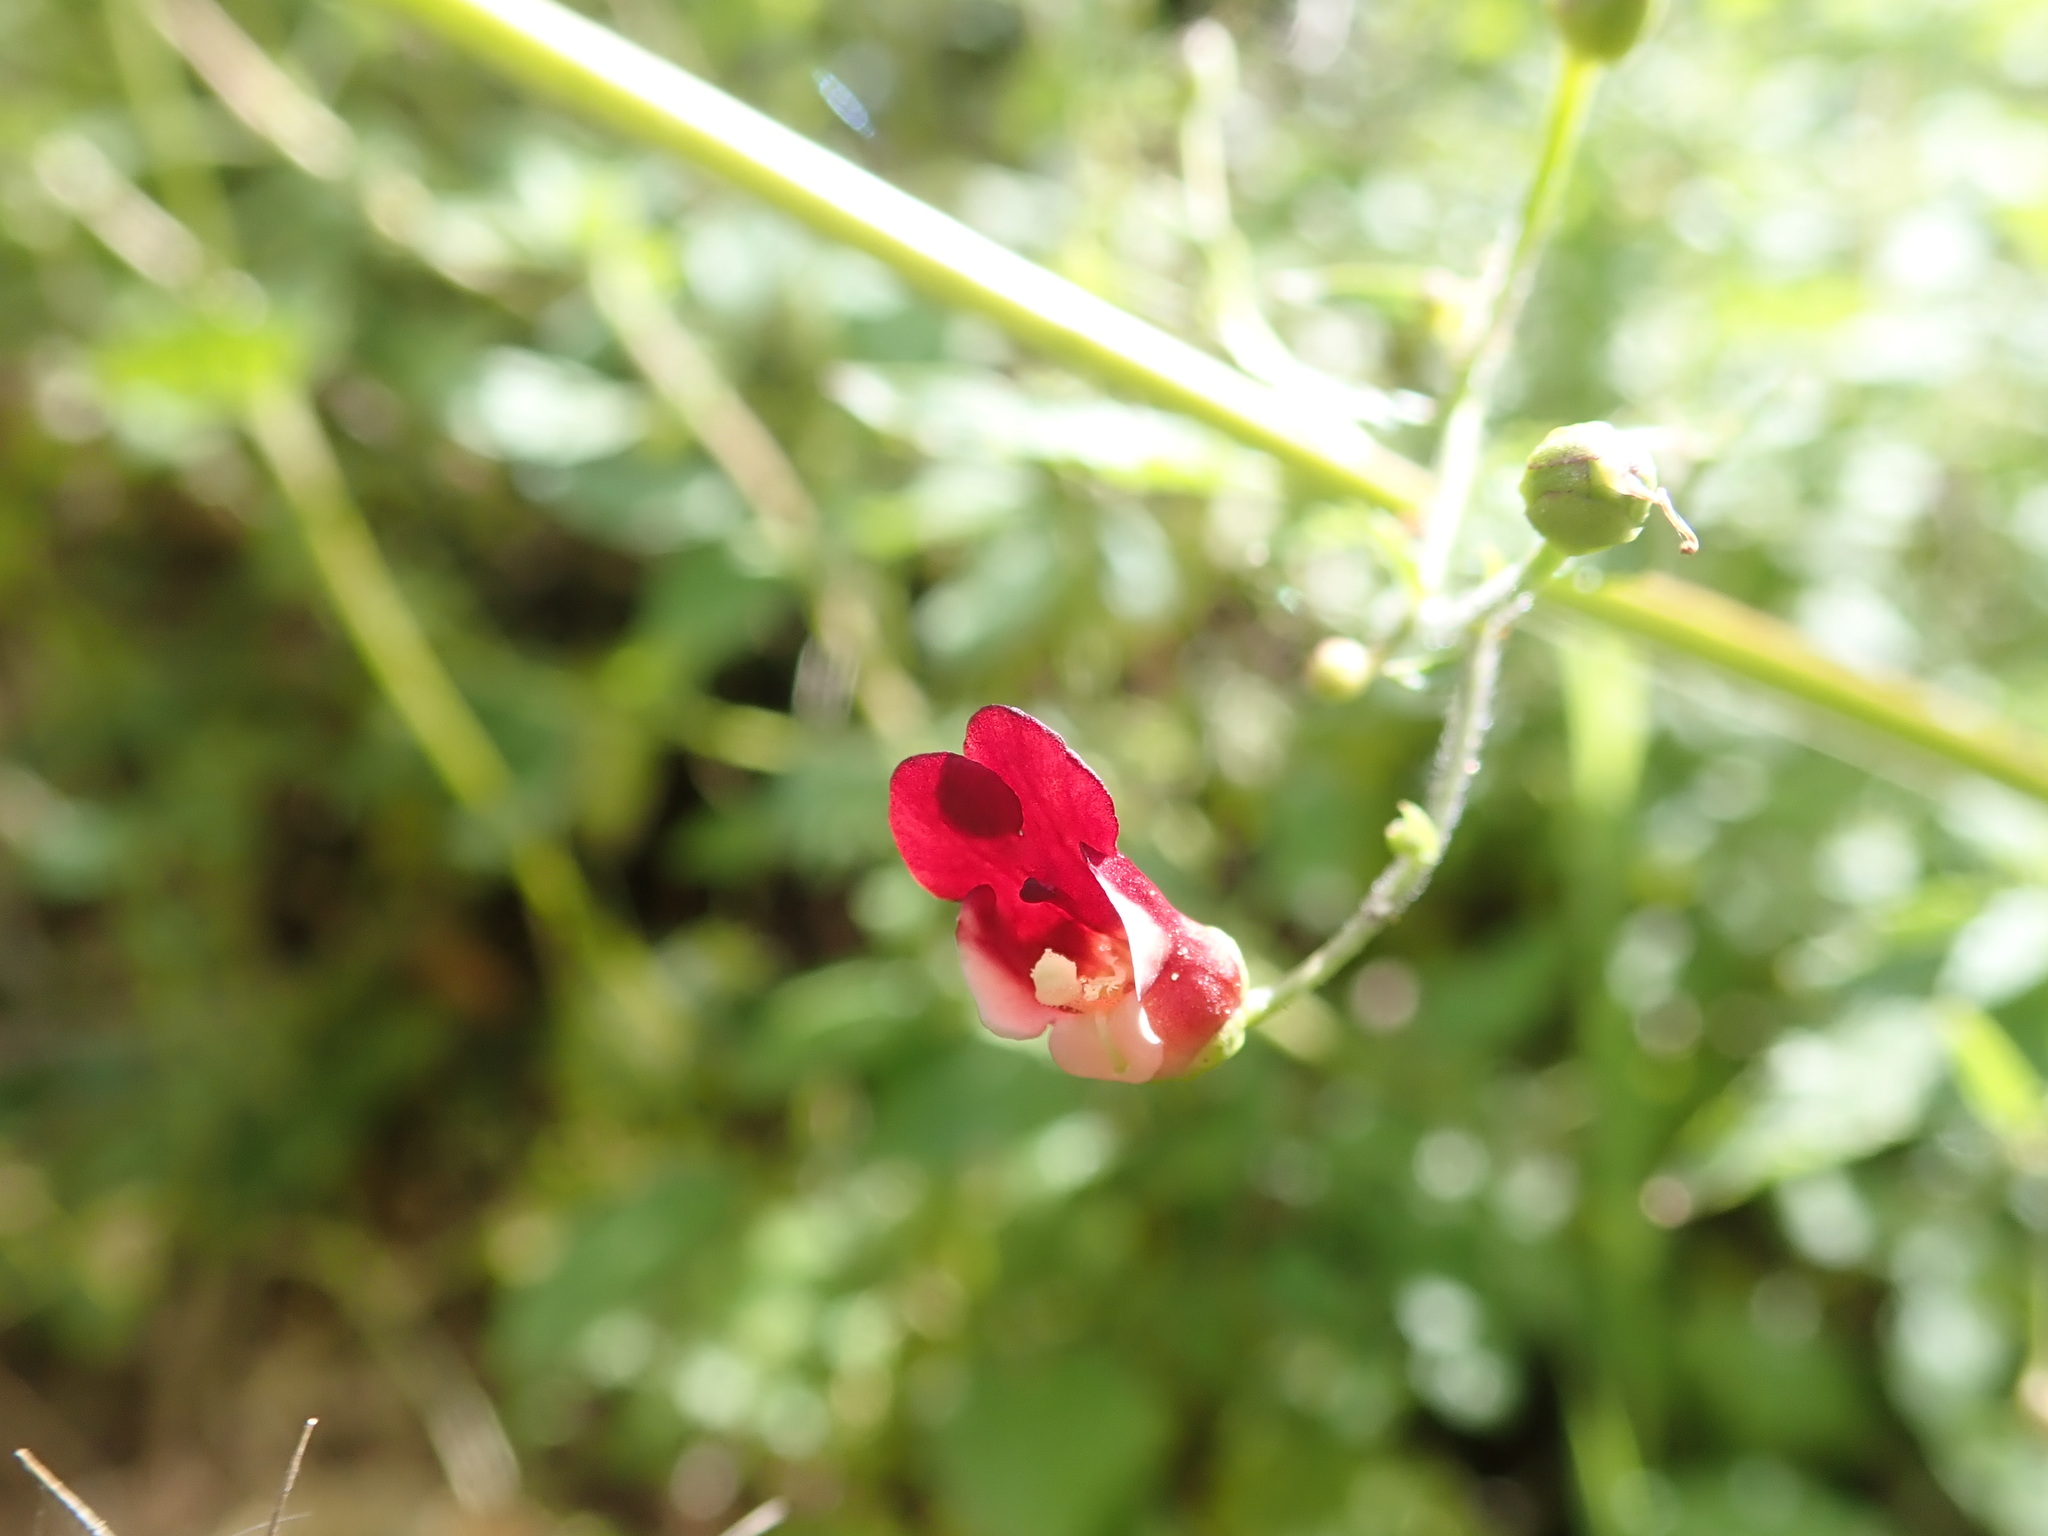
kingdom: Plantae
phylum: Tracheophyta
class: Magnoliopsida
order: Lamiales
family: Scrophulariaceae
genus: Scrophularia
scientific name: Scrophularia californica
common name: California figwort
